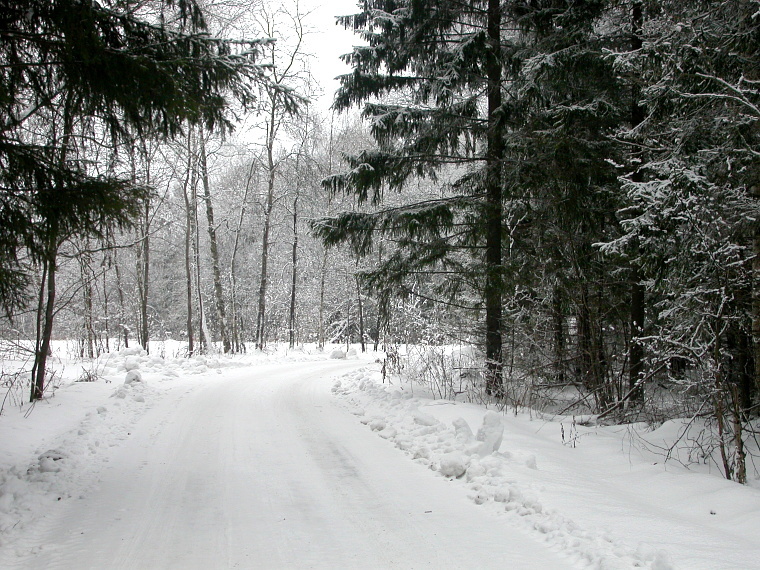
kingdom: Plantae
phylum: Tracheophyta
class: Pinopsida
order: Pinales
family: Pinaceae
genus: Picea
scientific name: Picea abies
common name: Norway spruce
